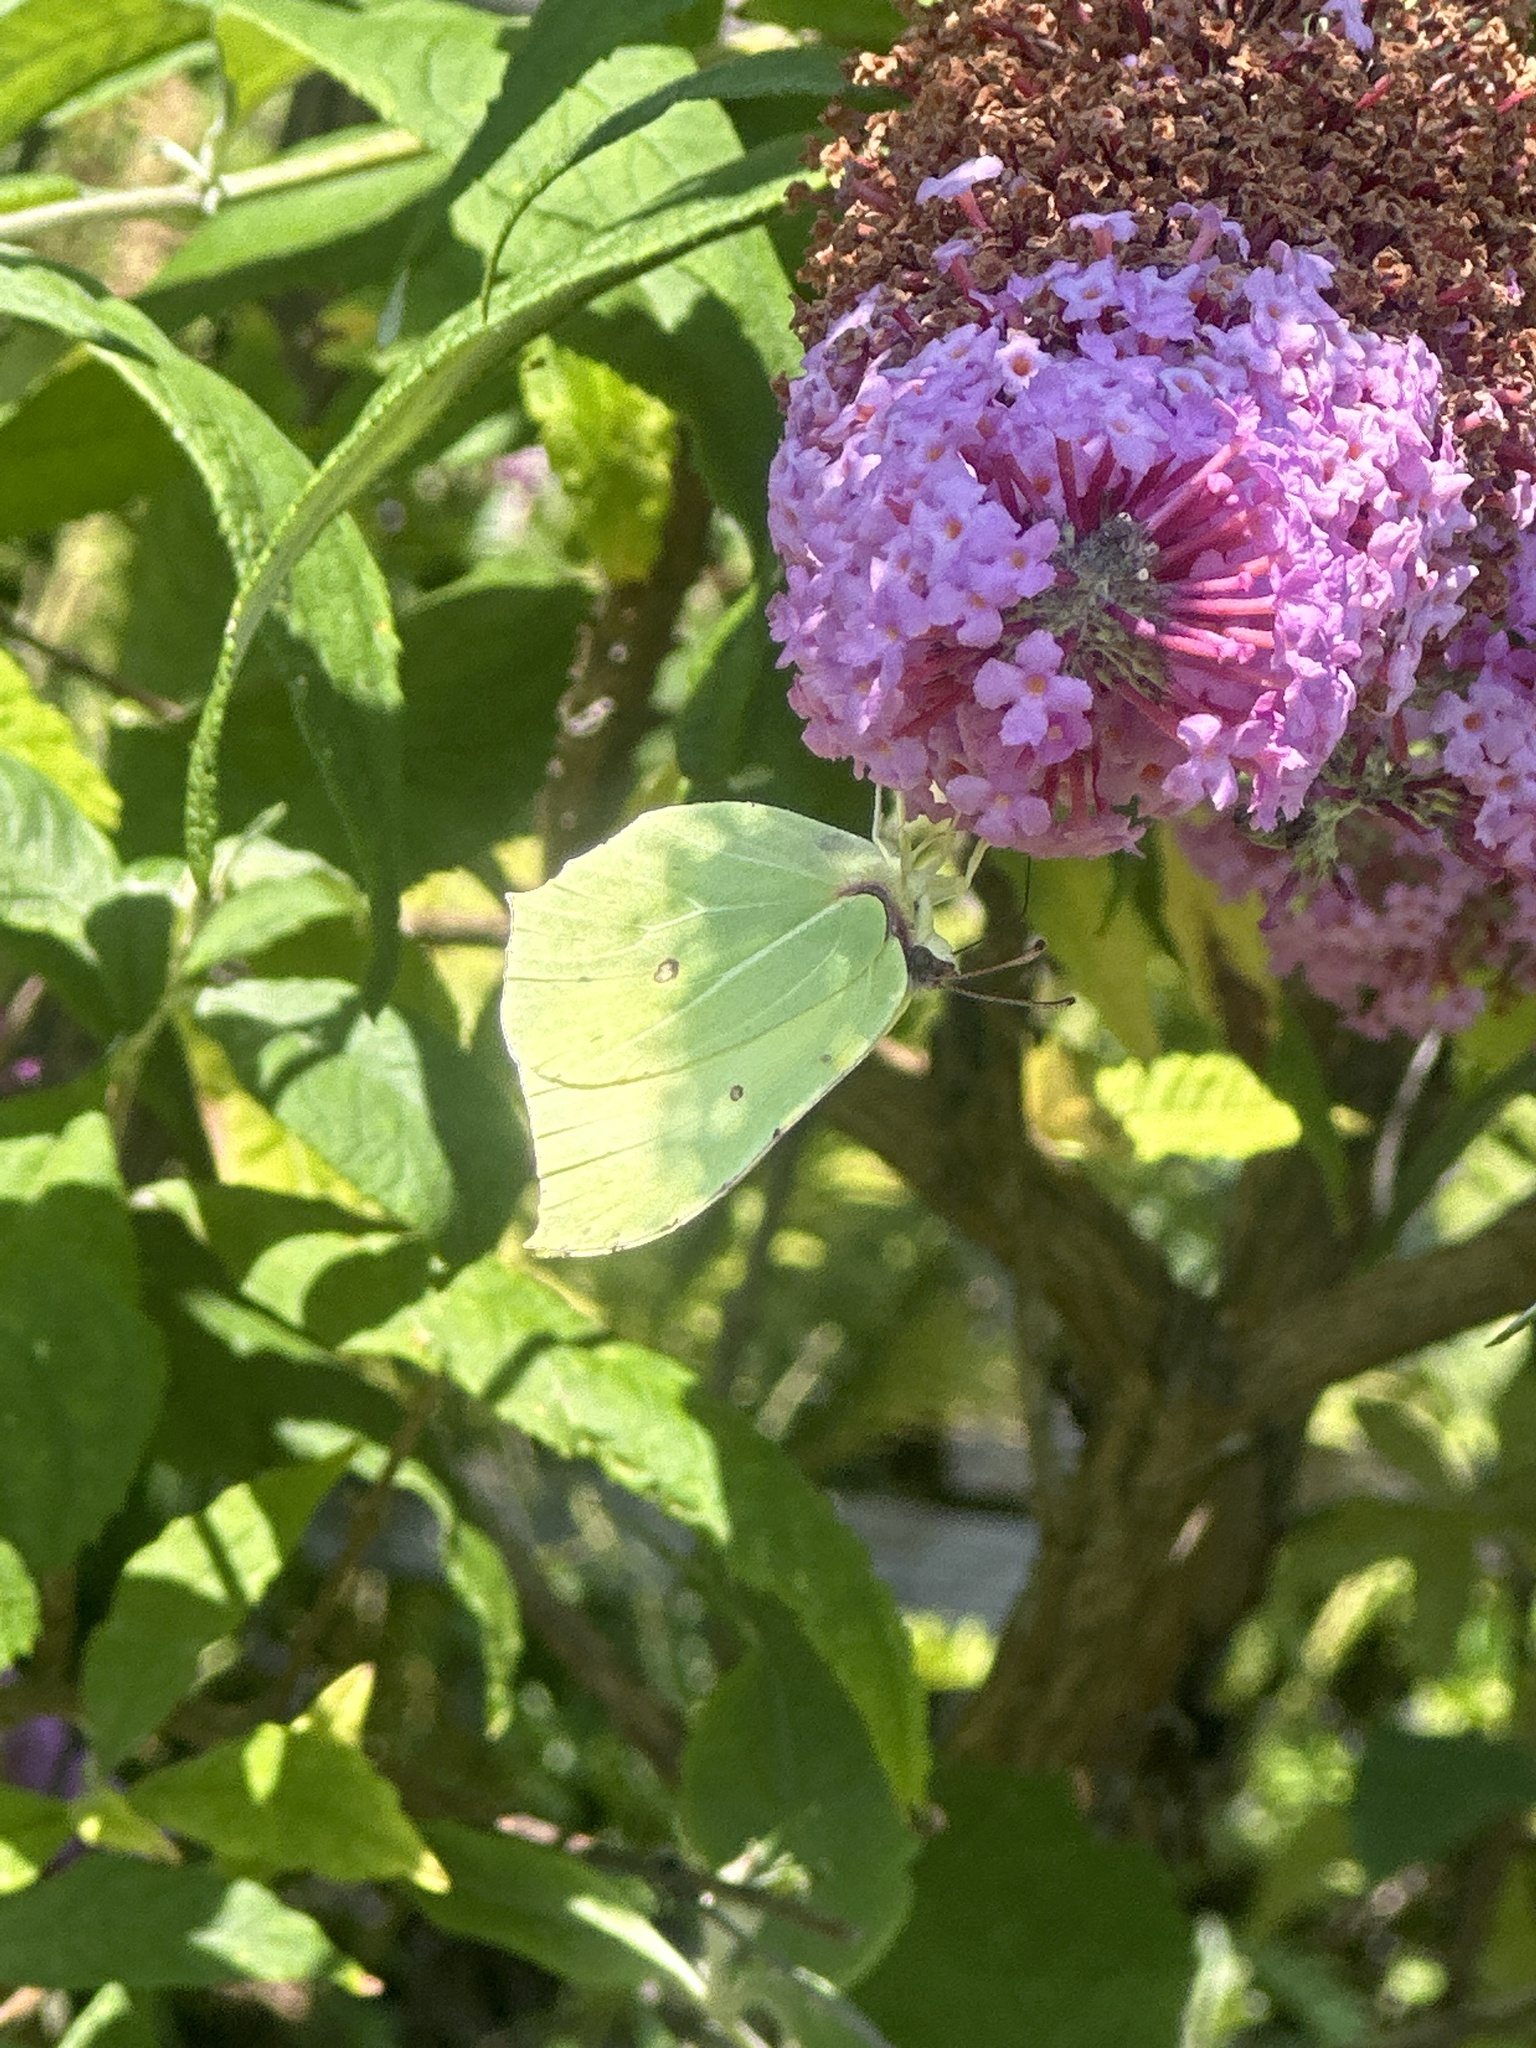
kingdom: Animalia
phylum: Arthropoda
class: Insecta
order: Lepidoptera
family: Pieridae
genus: Gonepteryx
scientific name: Gonepteryx rhamni
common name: Brimstone
